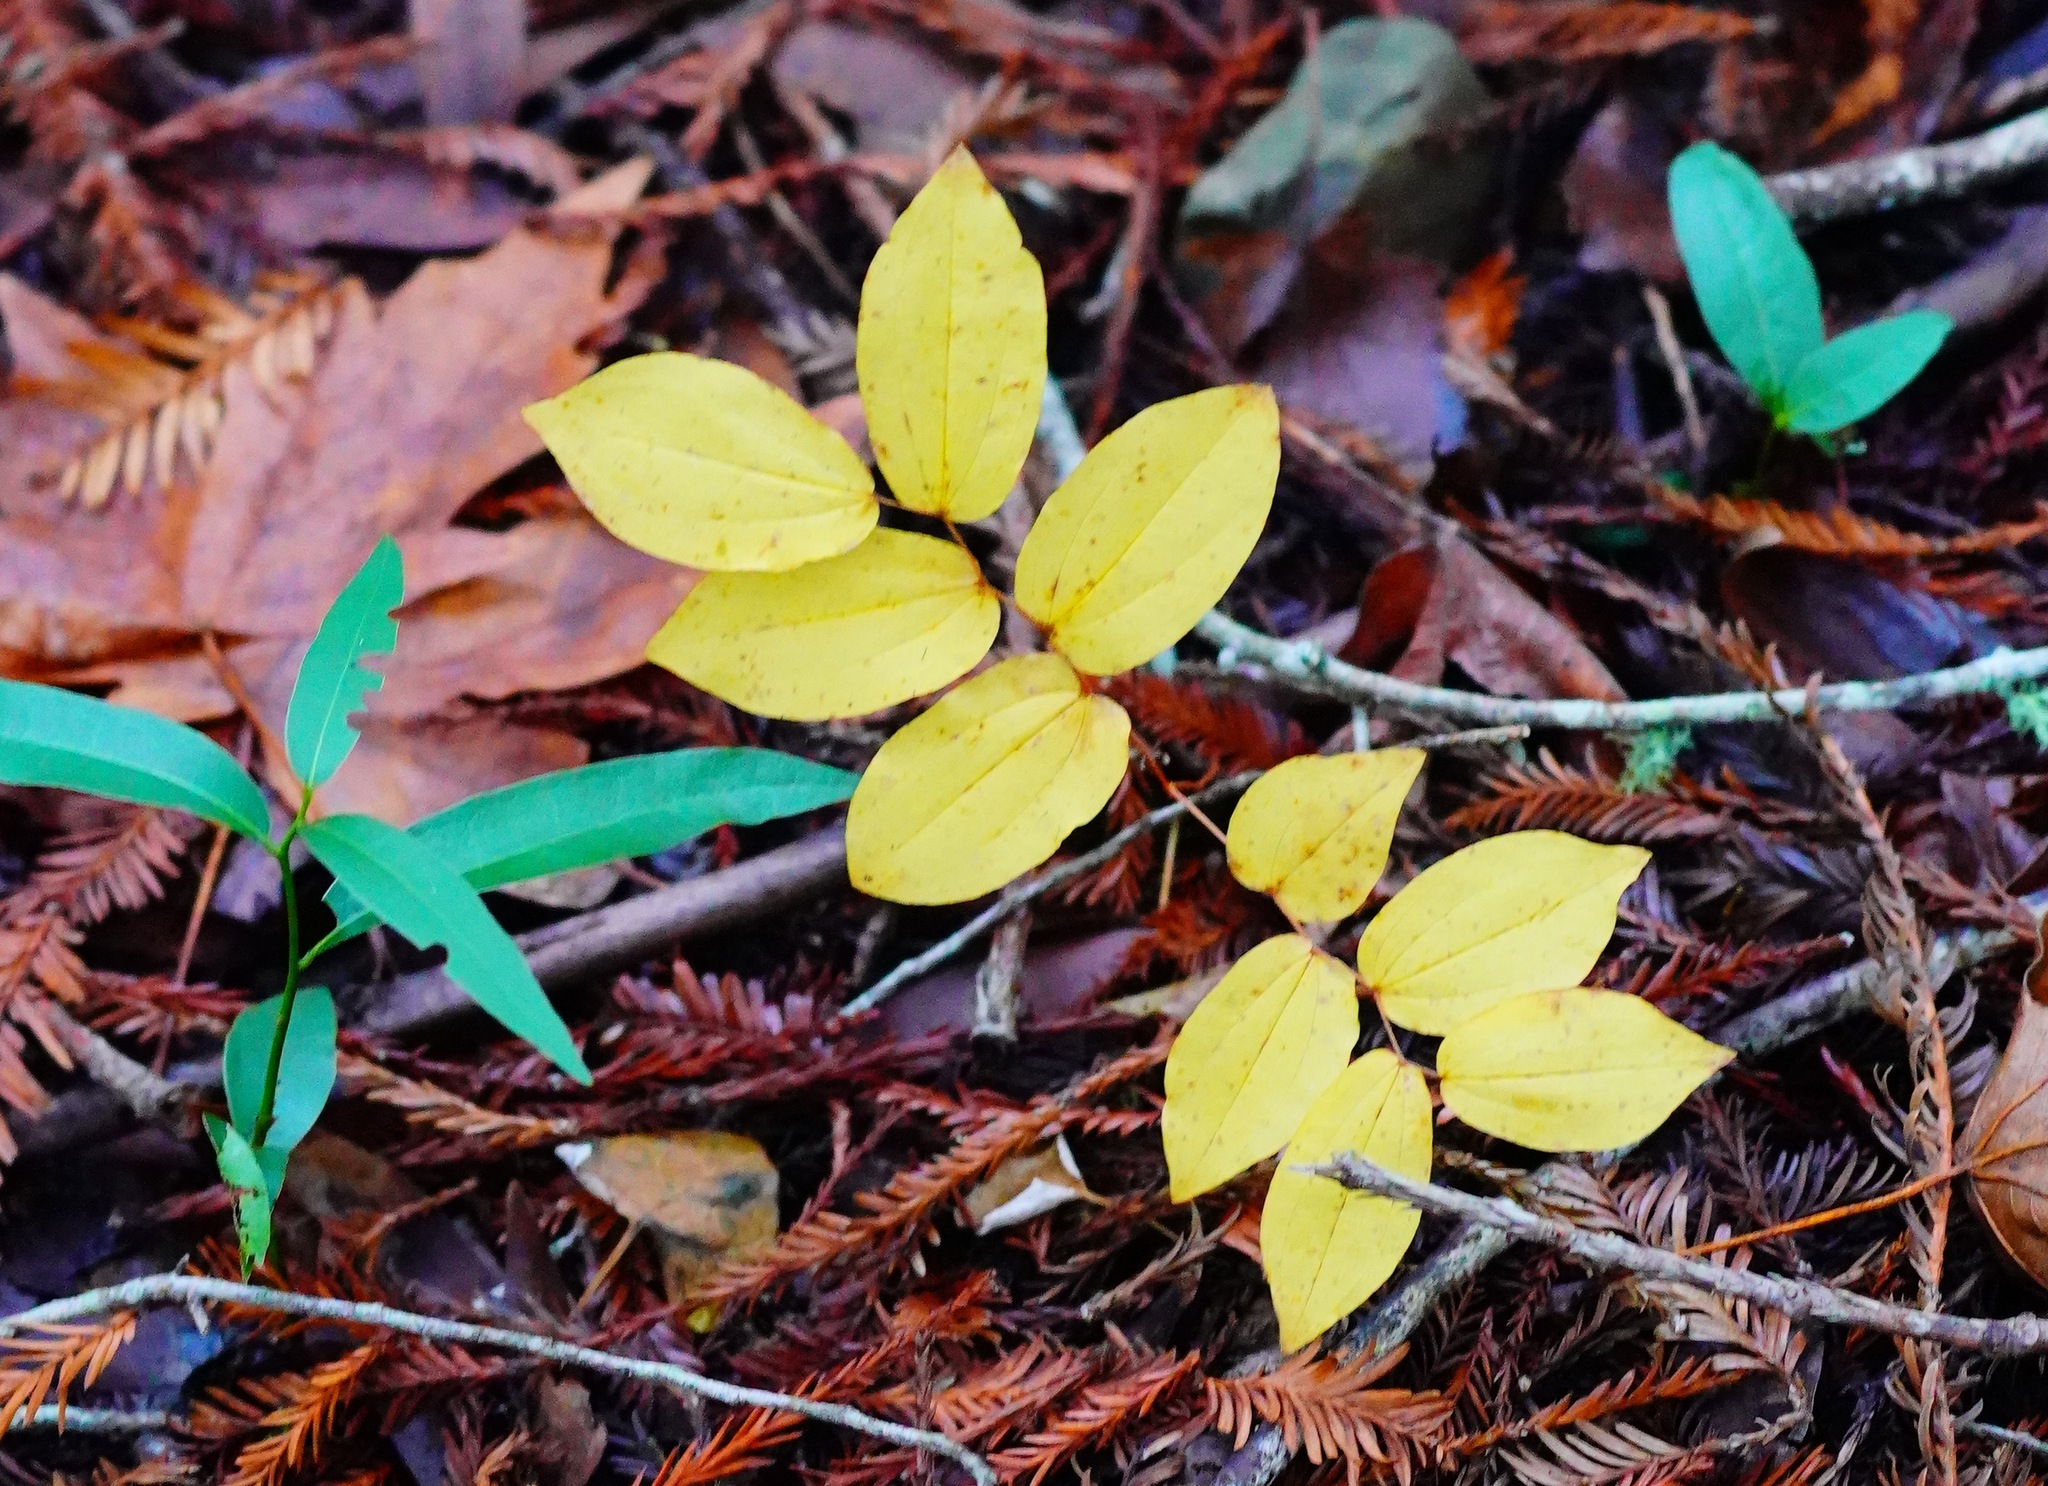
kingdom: Plantae
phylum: Tracheophyta
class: Liliopsida
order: Liliales
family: Liliaceae
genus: Prosartes
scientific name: Prosartes hookeri
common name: Fairy-bells
